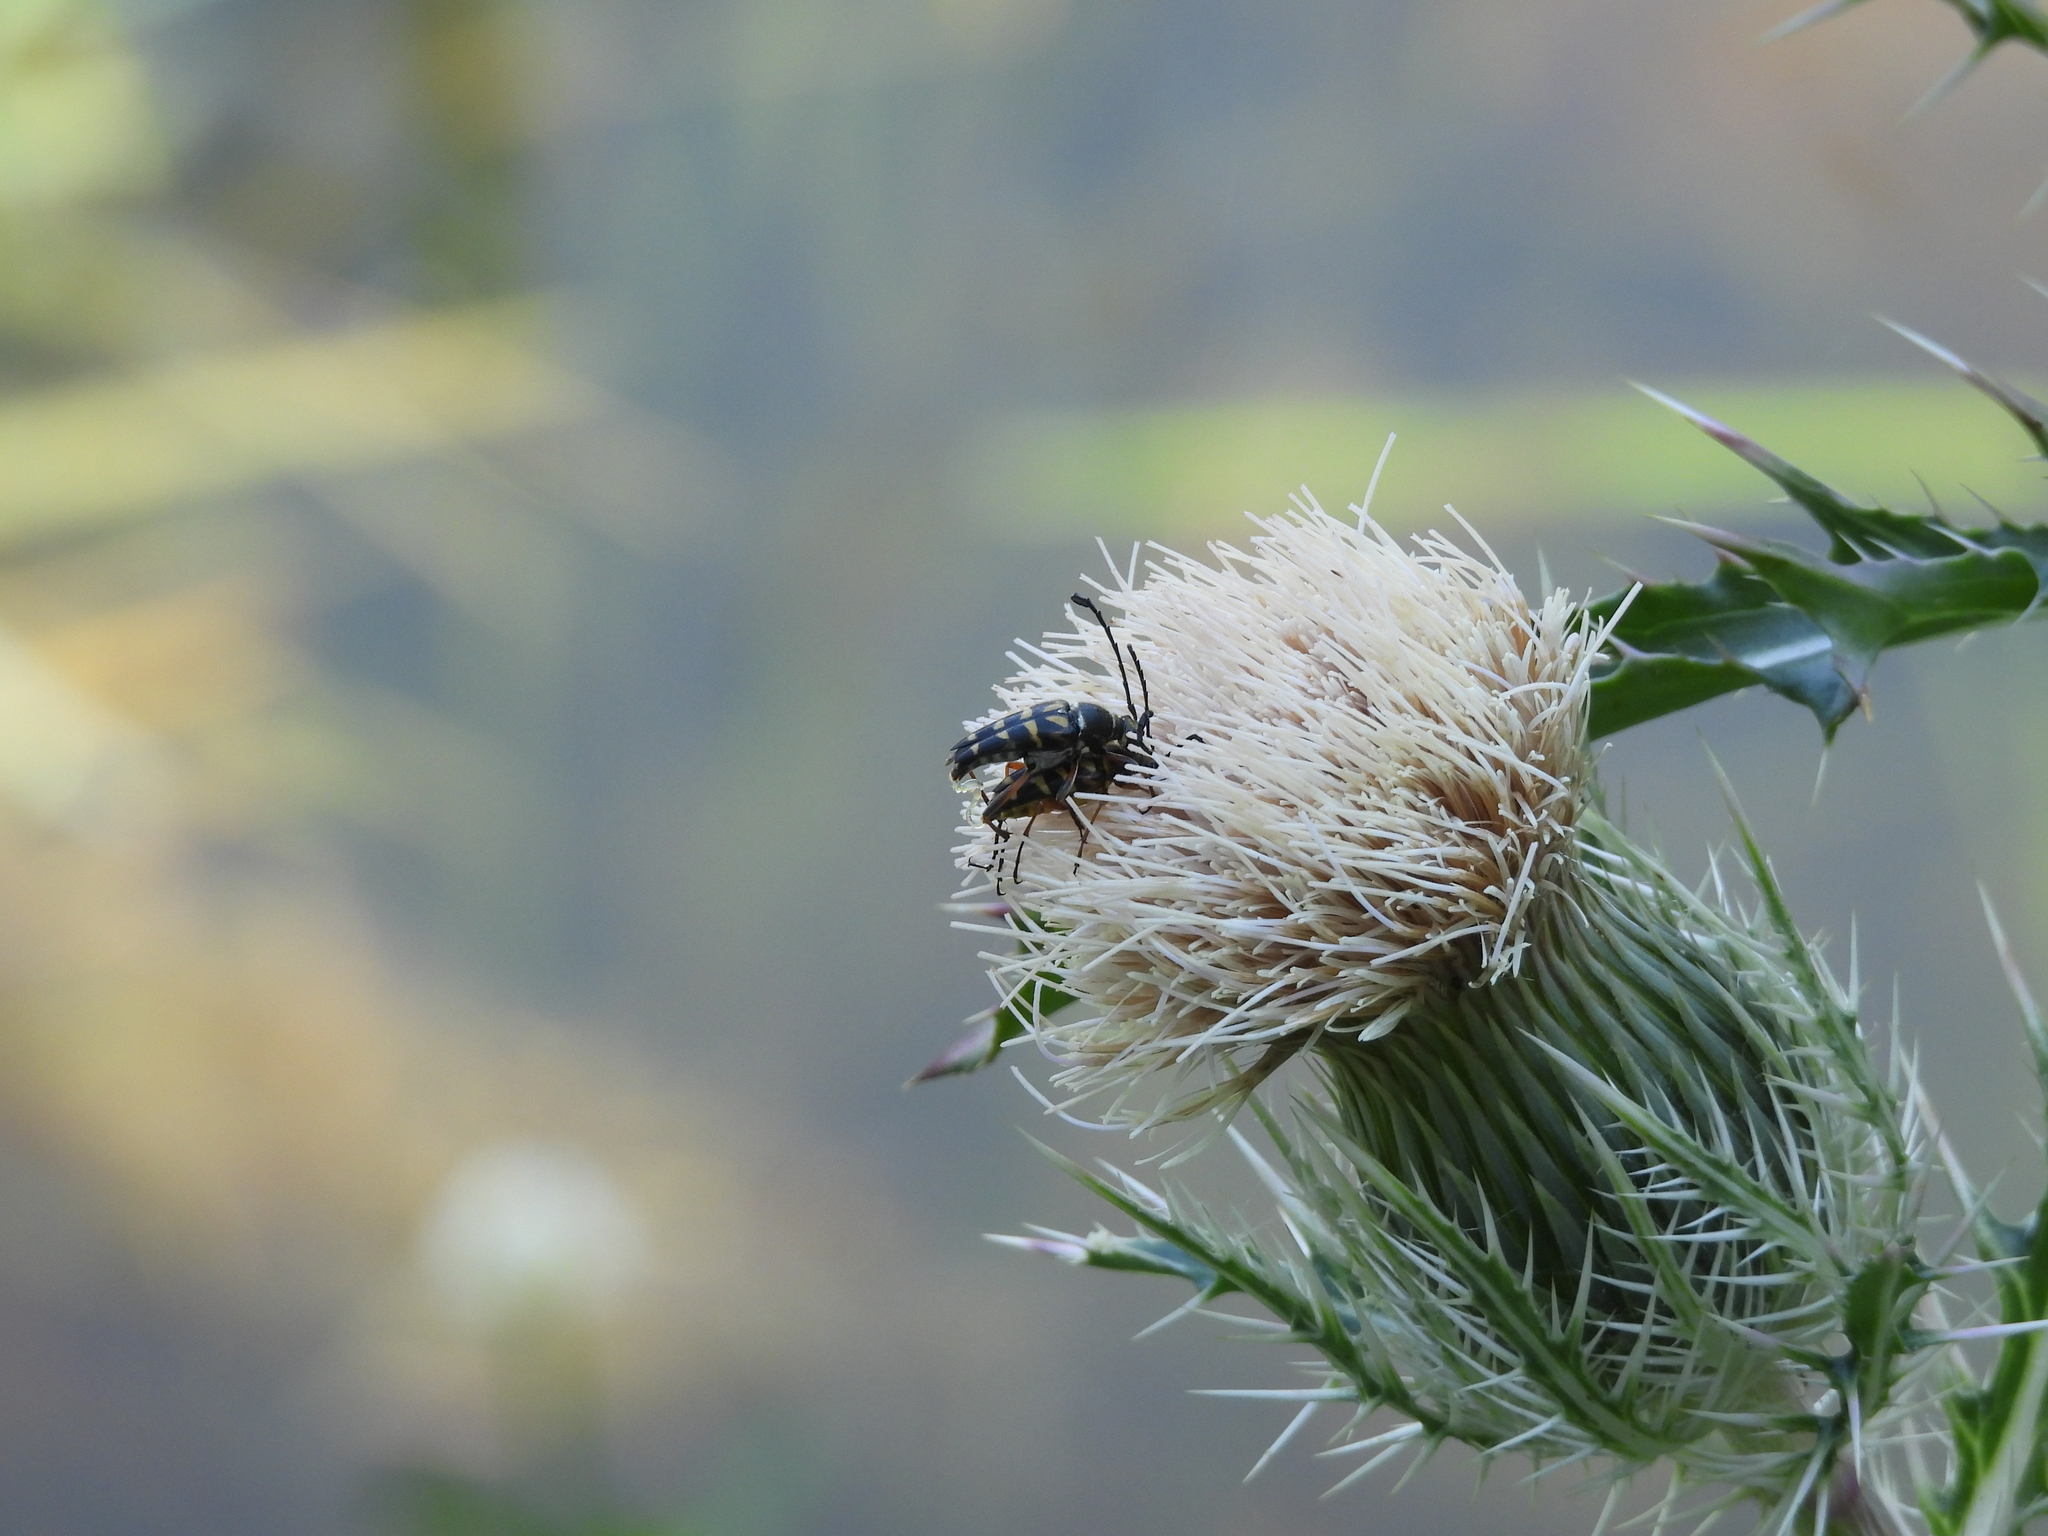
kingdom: Animalia
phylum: Arthropoda
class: Insecta
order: Coleoptera
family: Cerambycidae
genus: Typocerus
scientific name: Typocerus zebra
